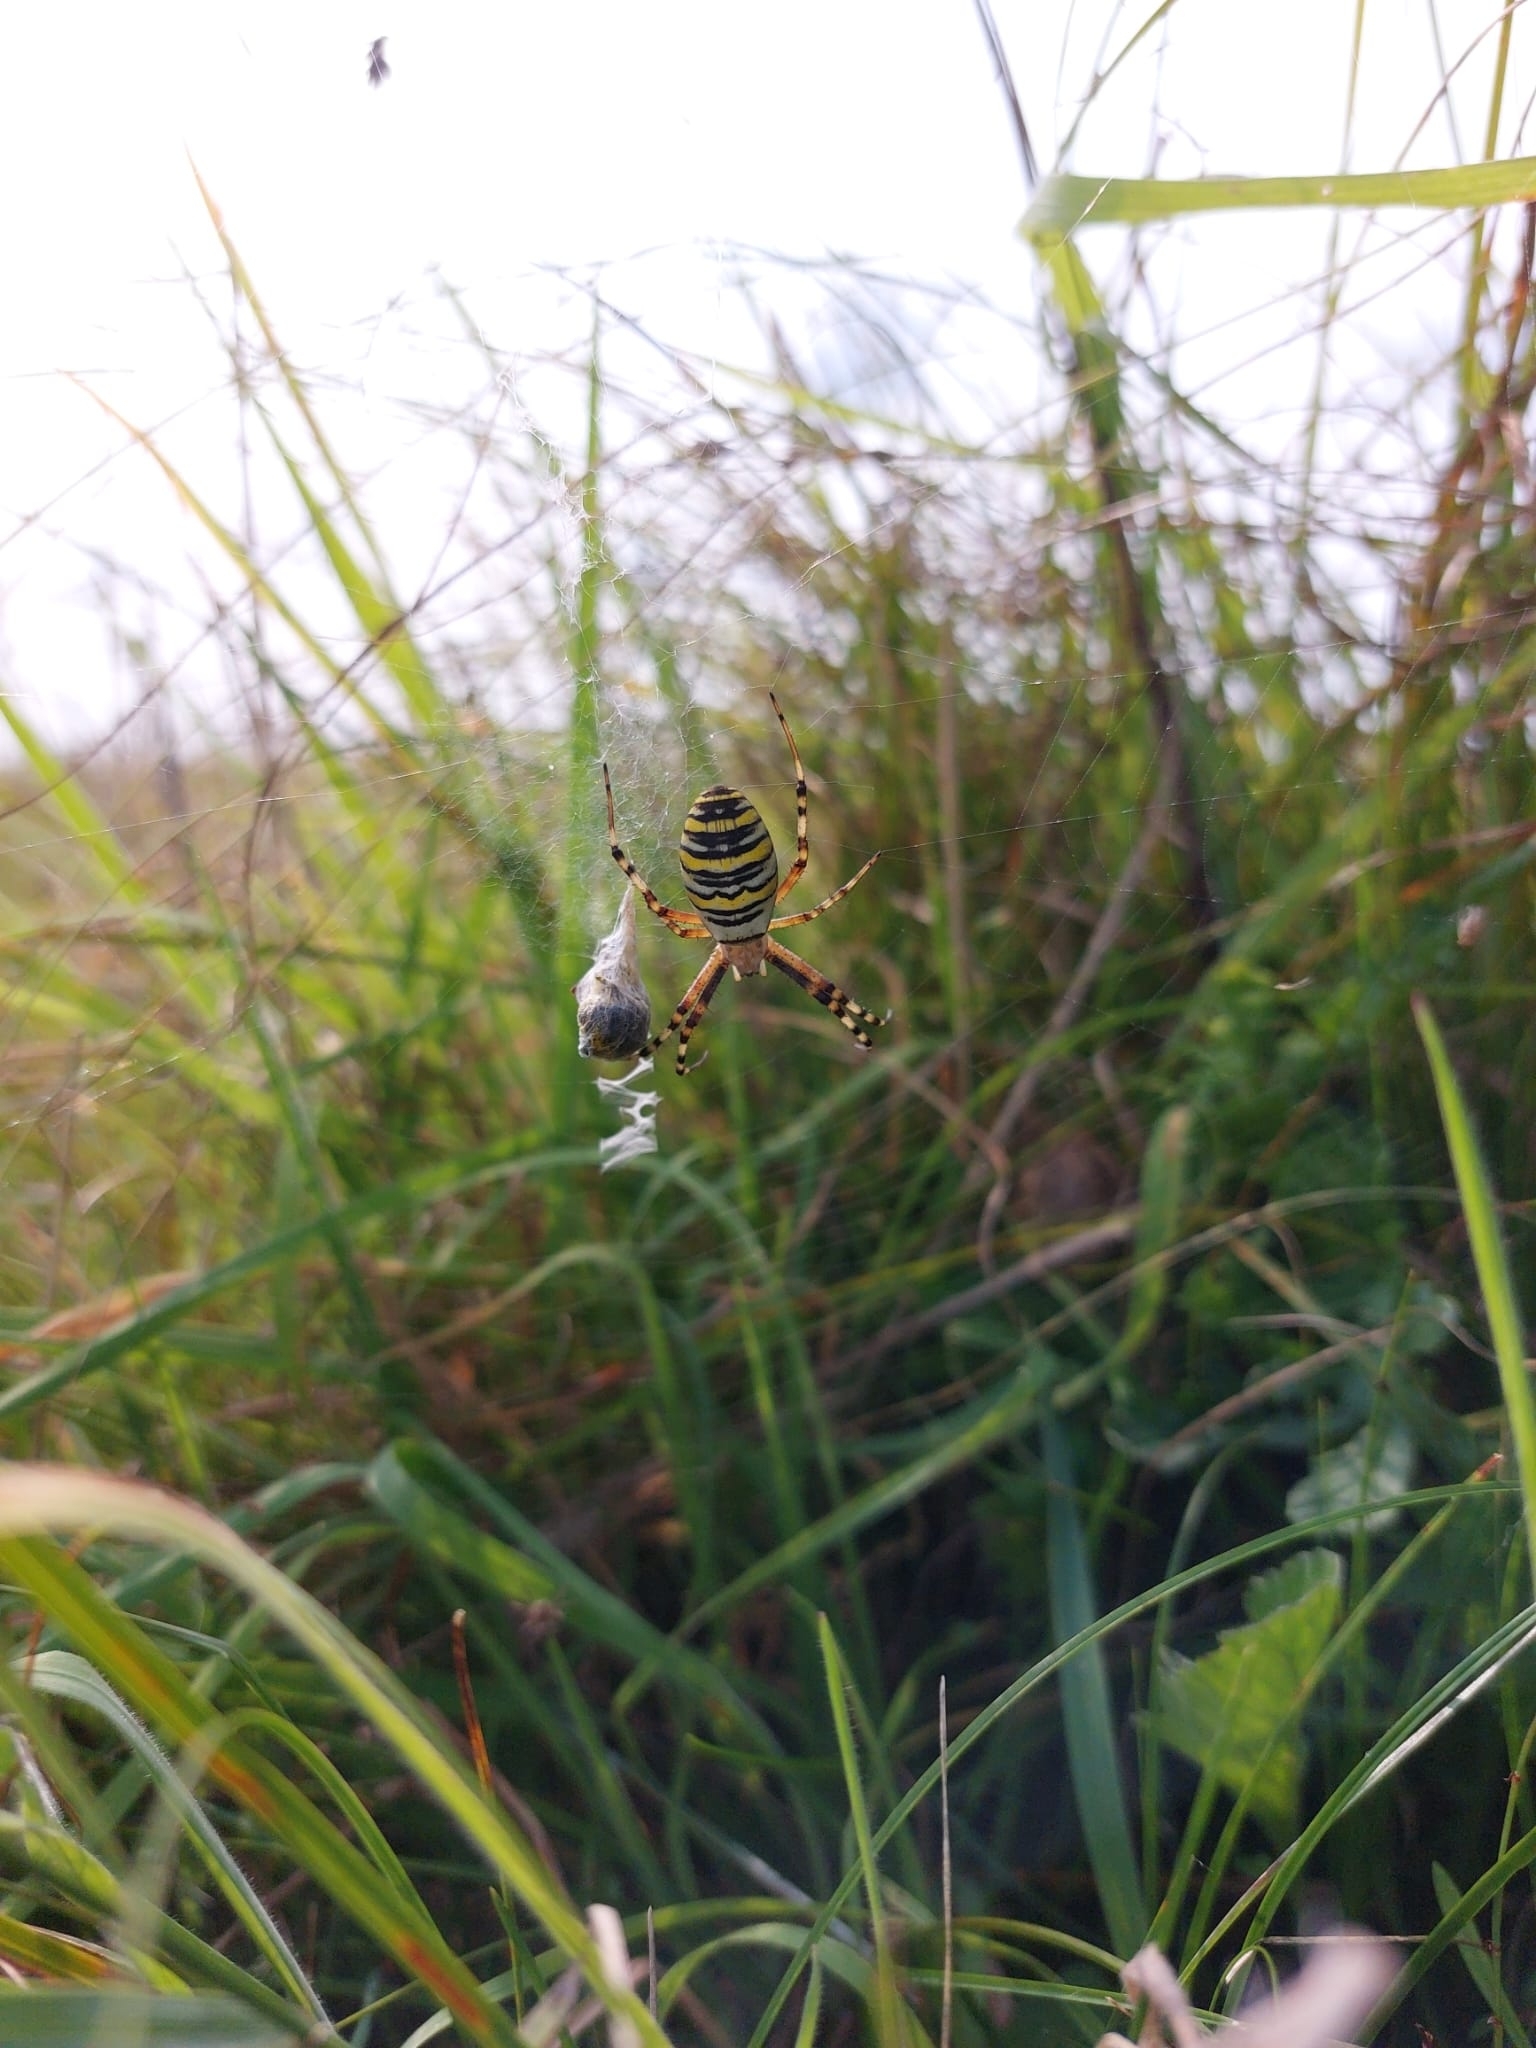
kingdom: Animalia
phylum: Arthropoda
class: Arachnida
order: Araneae
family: Araneidae
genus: Argiope
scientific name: Argiope bruennichi
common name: Wasp spider
